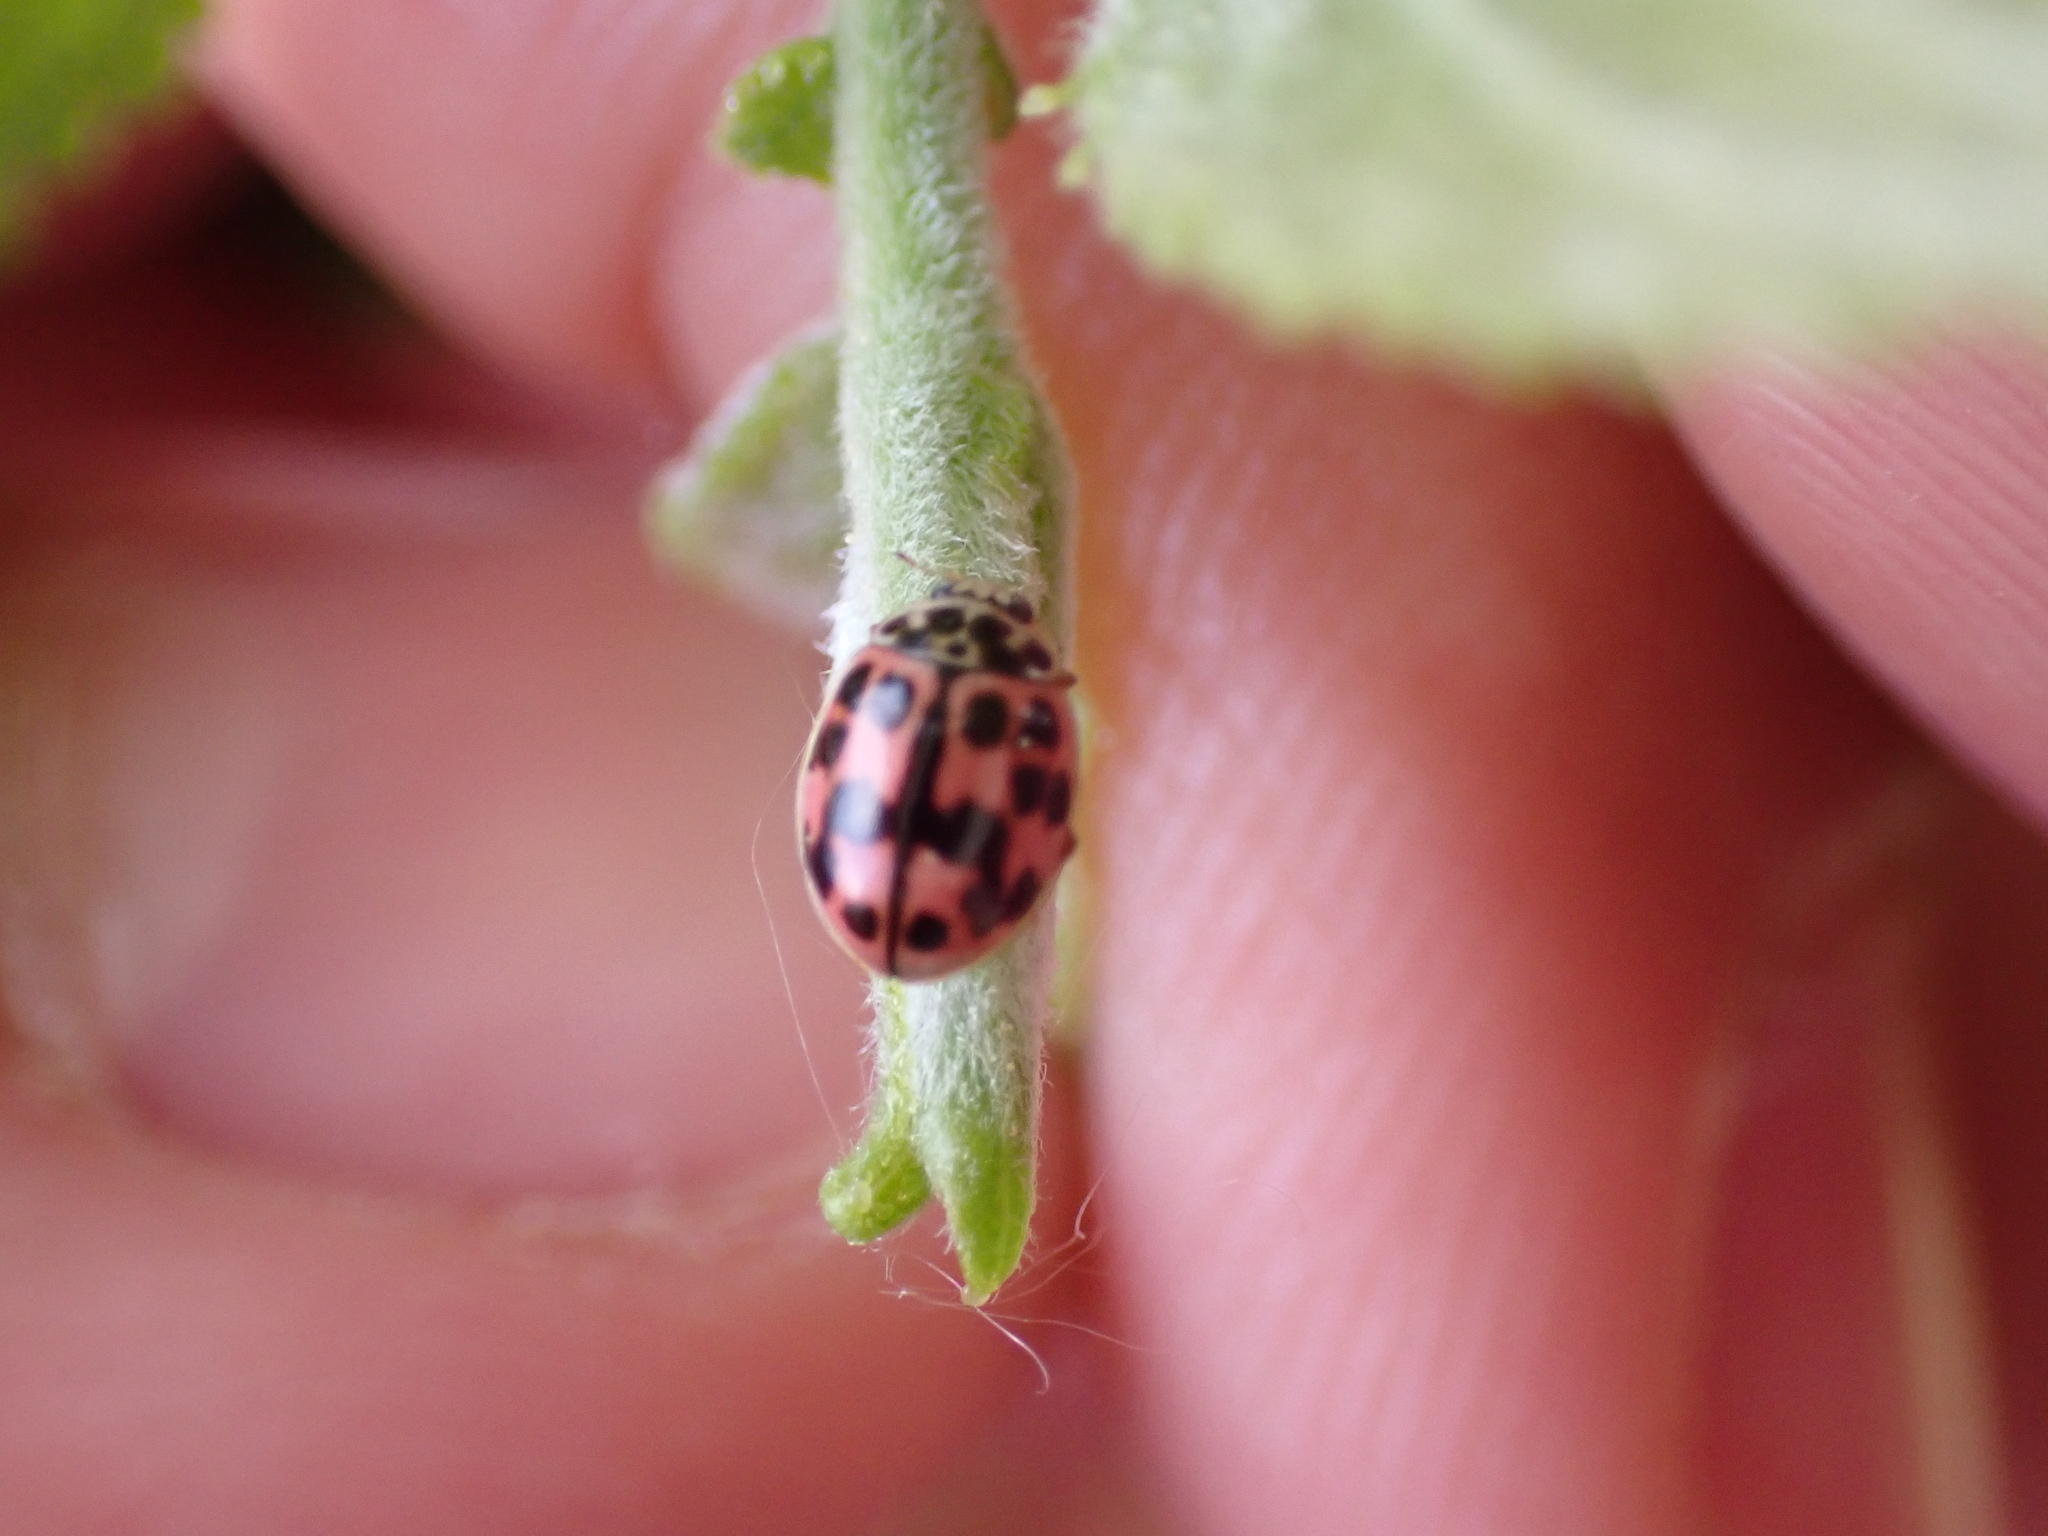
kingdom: Animalia
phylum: Arthropoda
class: Insecta
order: Coleoptera
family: Coccinellidae
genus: Oenopia
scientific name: Oenopia conglobata
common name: Ladybird beetle
